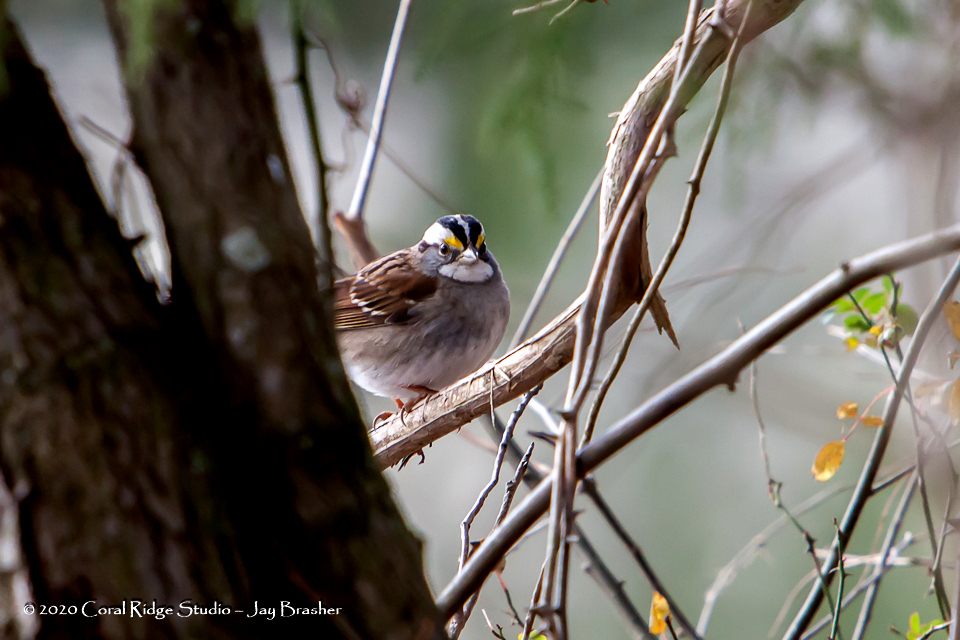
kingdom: Animalia
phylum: Chordata
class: Aves
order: Passeriformes
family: Passerellidae
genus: Zonotrichia
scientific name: Zonotrichia albicollis
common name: White-throated sparrow
